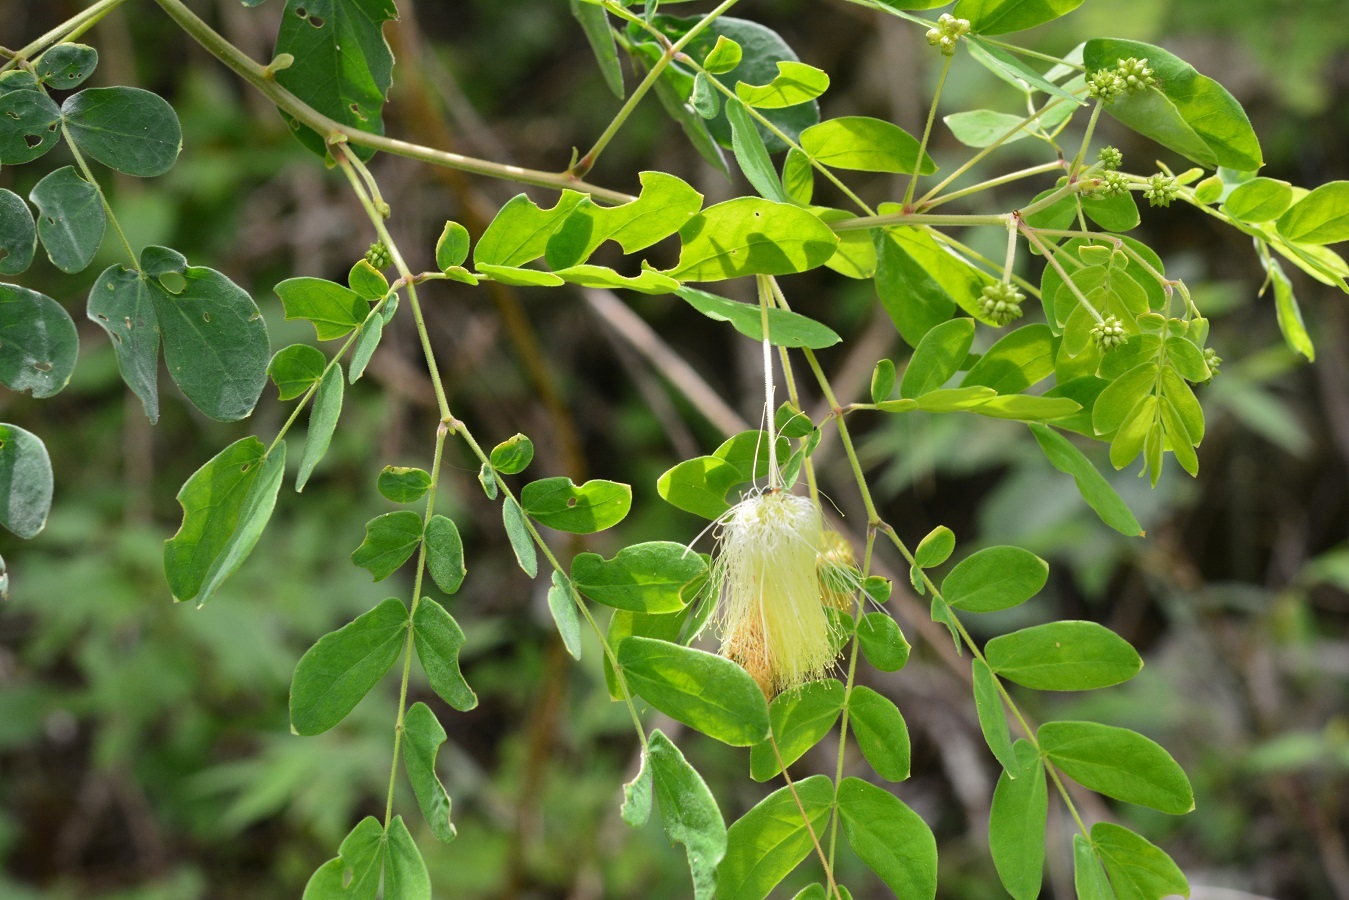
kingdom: Plantae
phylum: Tracheophyta
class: Magnoliopsida
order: Fabales
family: Fabaceae
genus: Zapoteca
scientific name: Zapoteca formosa
